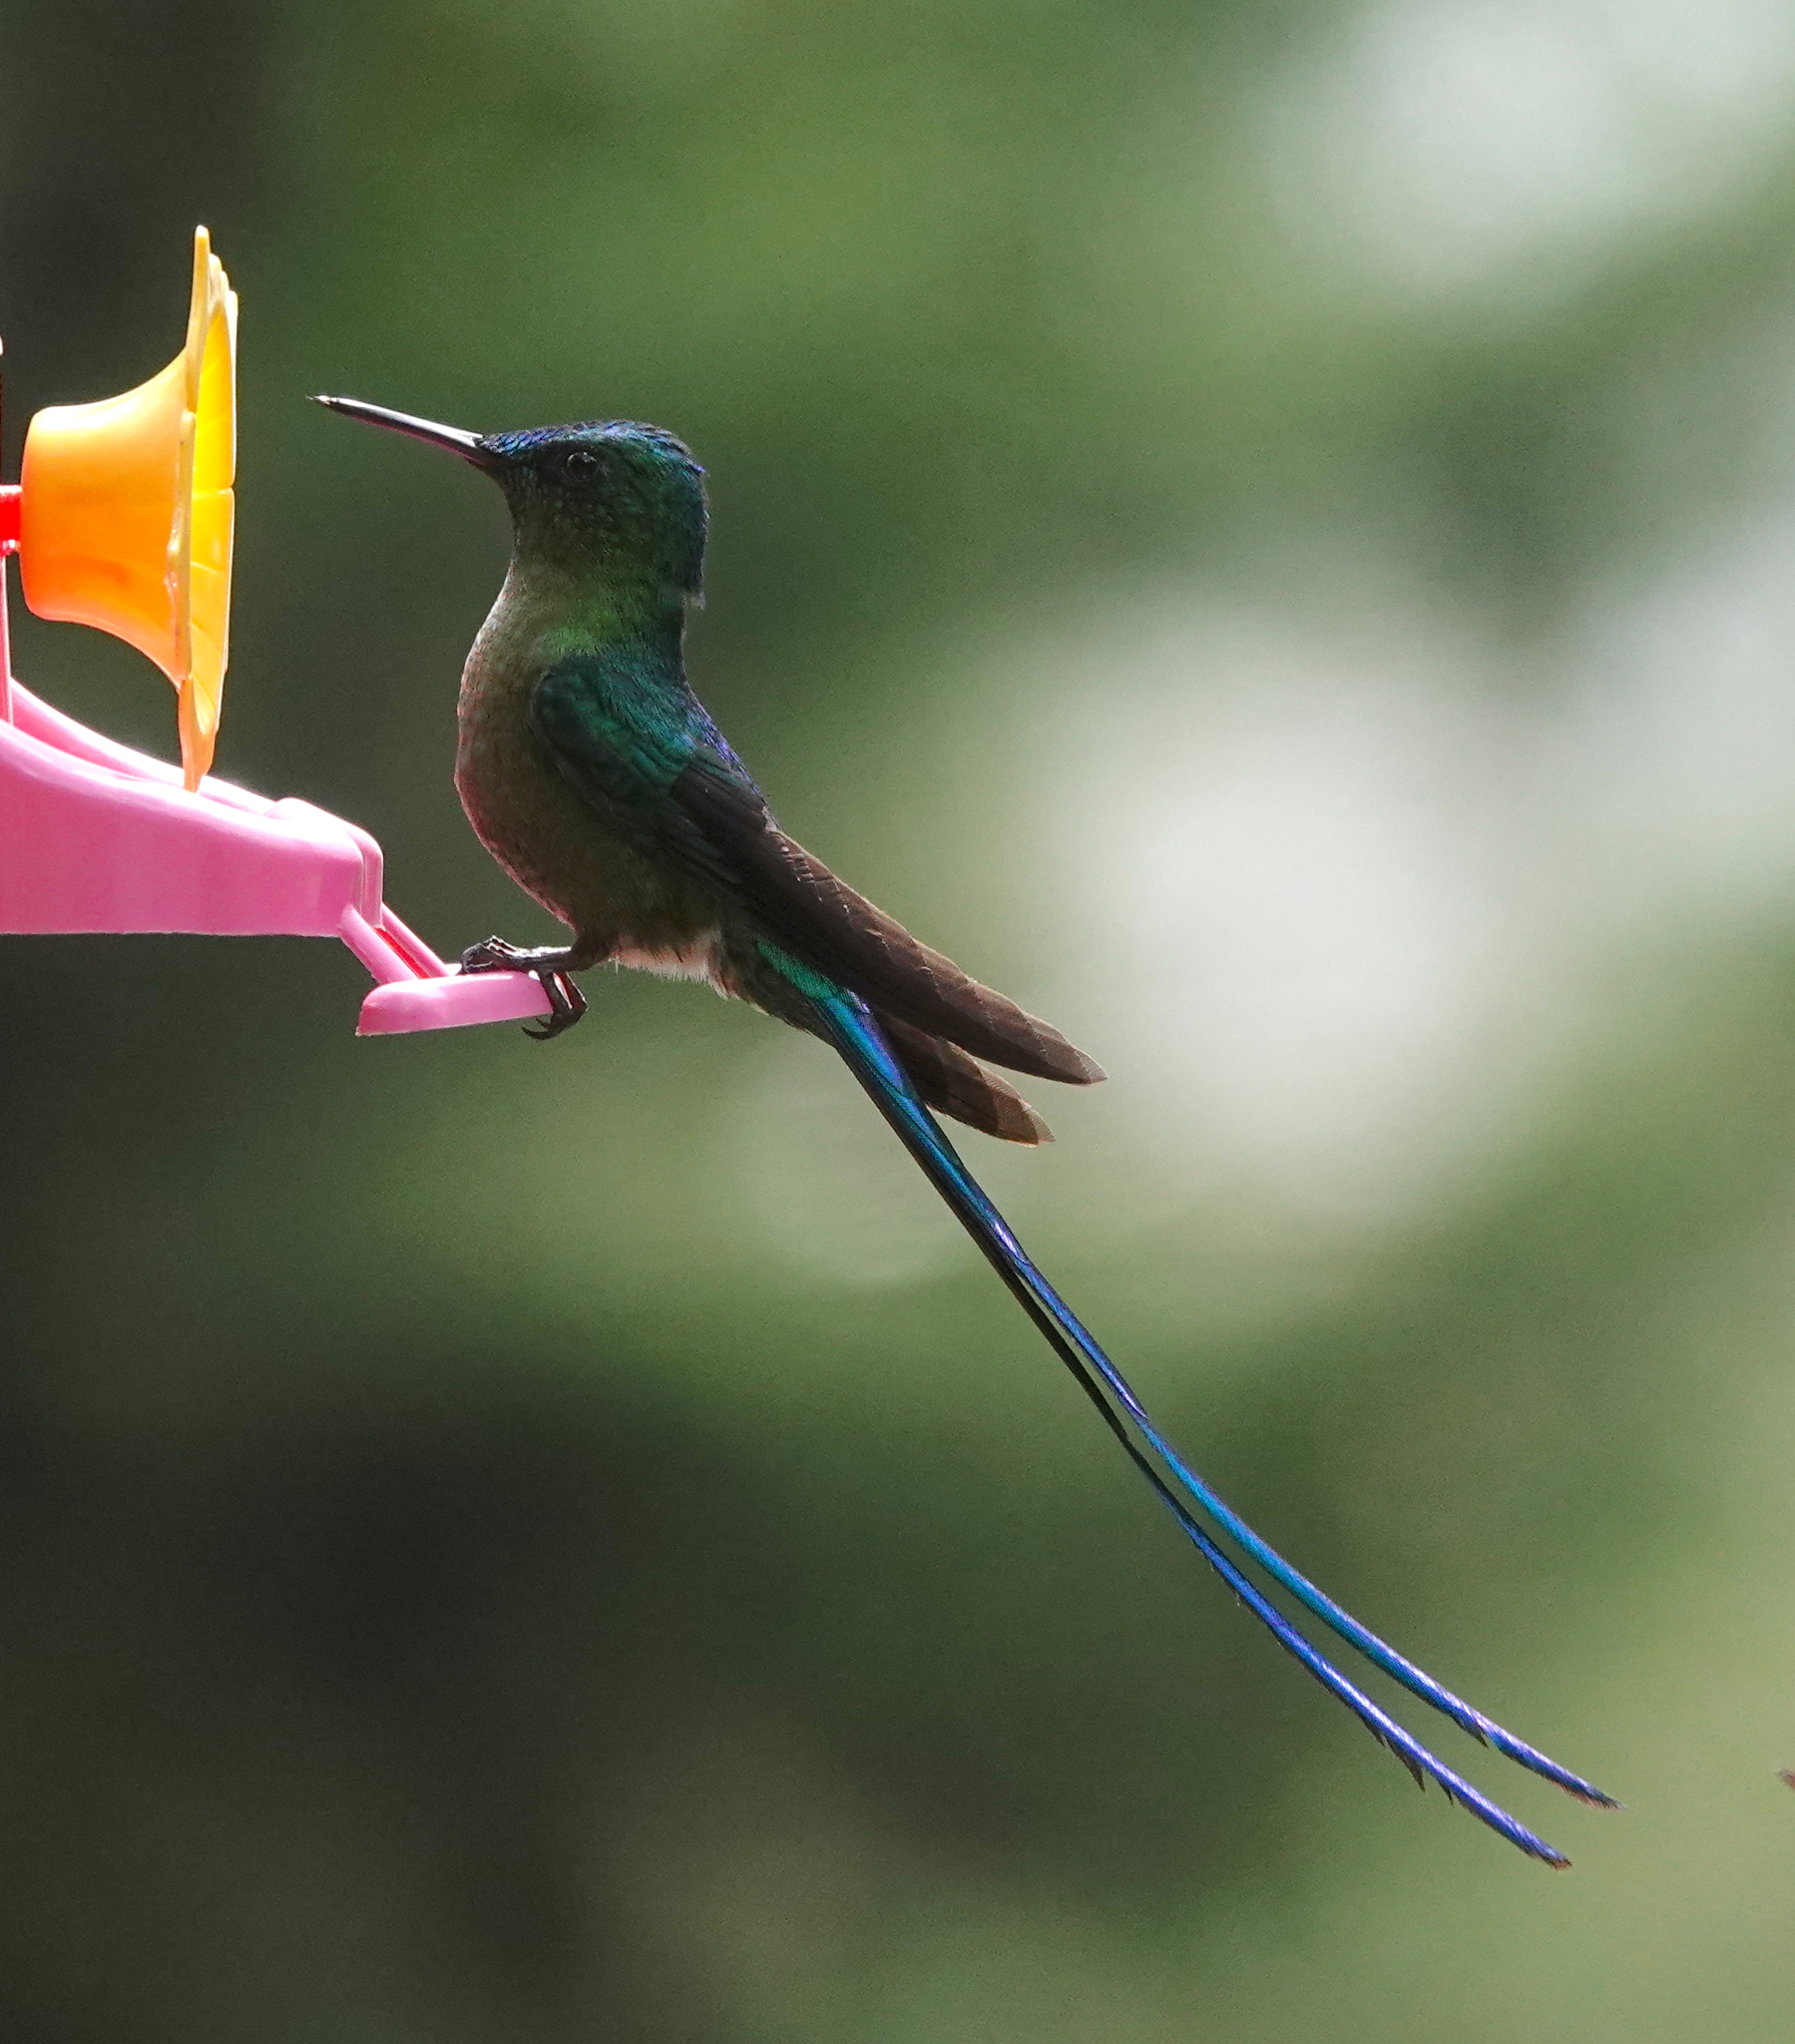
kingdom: Animalia
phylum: Chordata
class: Aves
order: Apodiformes
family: Trochilidae
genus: Aglaiocercus
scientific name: Aglaiocercus kingii
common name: Long-tailed sylph
